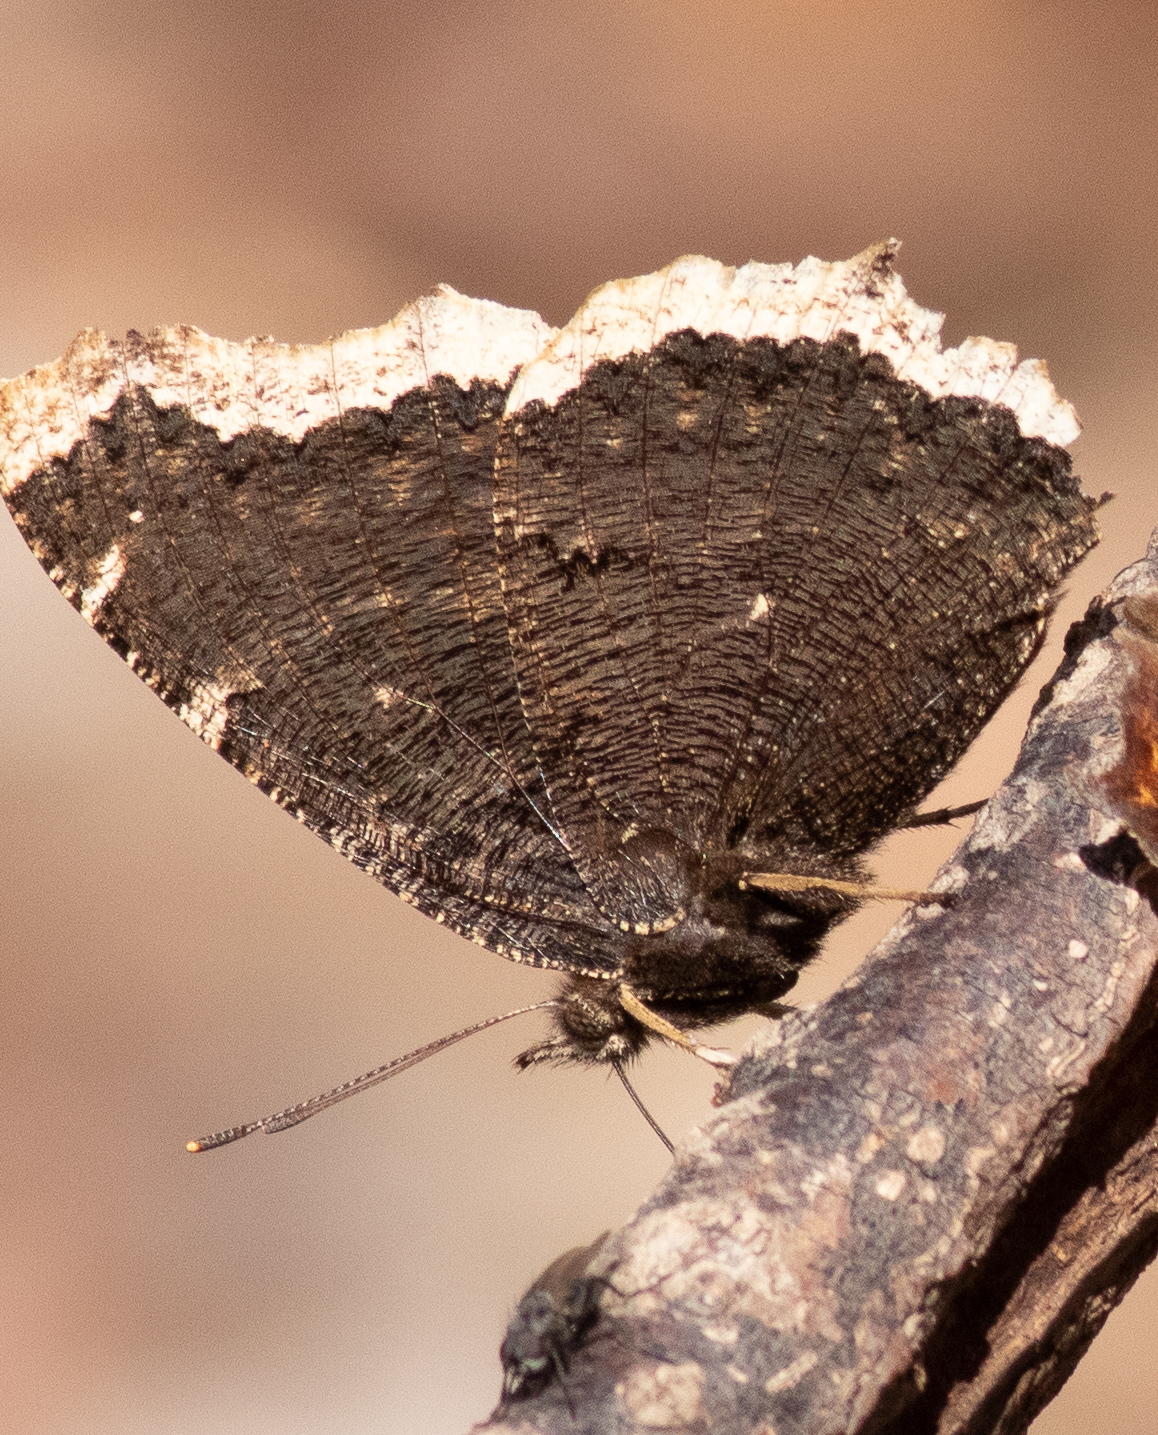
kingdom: Animalia
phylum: Arthropoda
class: Insecta
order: Lepidoptera
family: Nymphalidae
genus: Nymphalis
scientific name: Nymphalis antiopa
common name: Camberwell beauty
